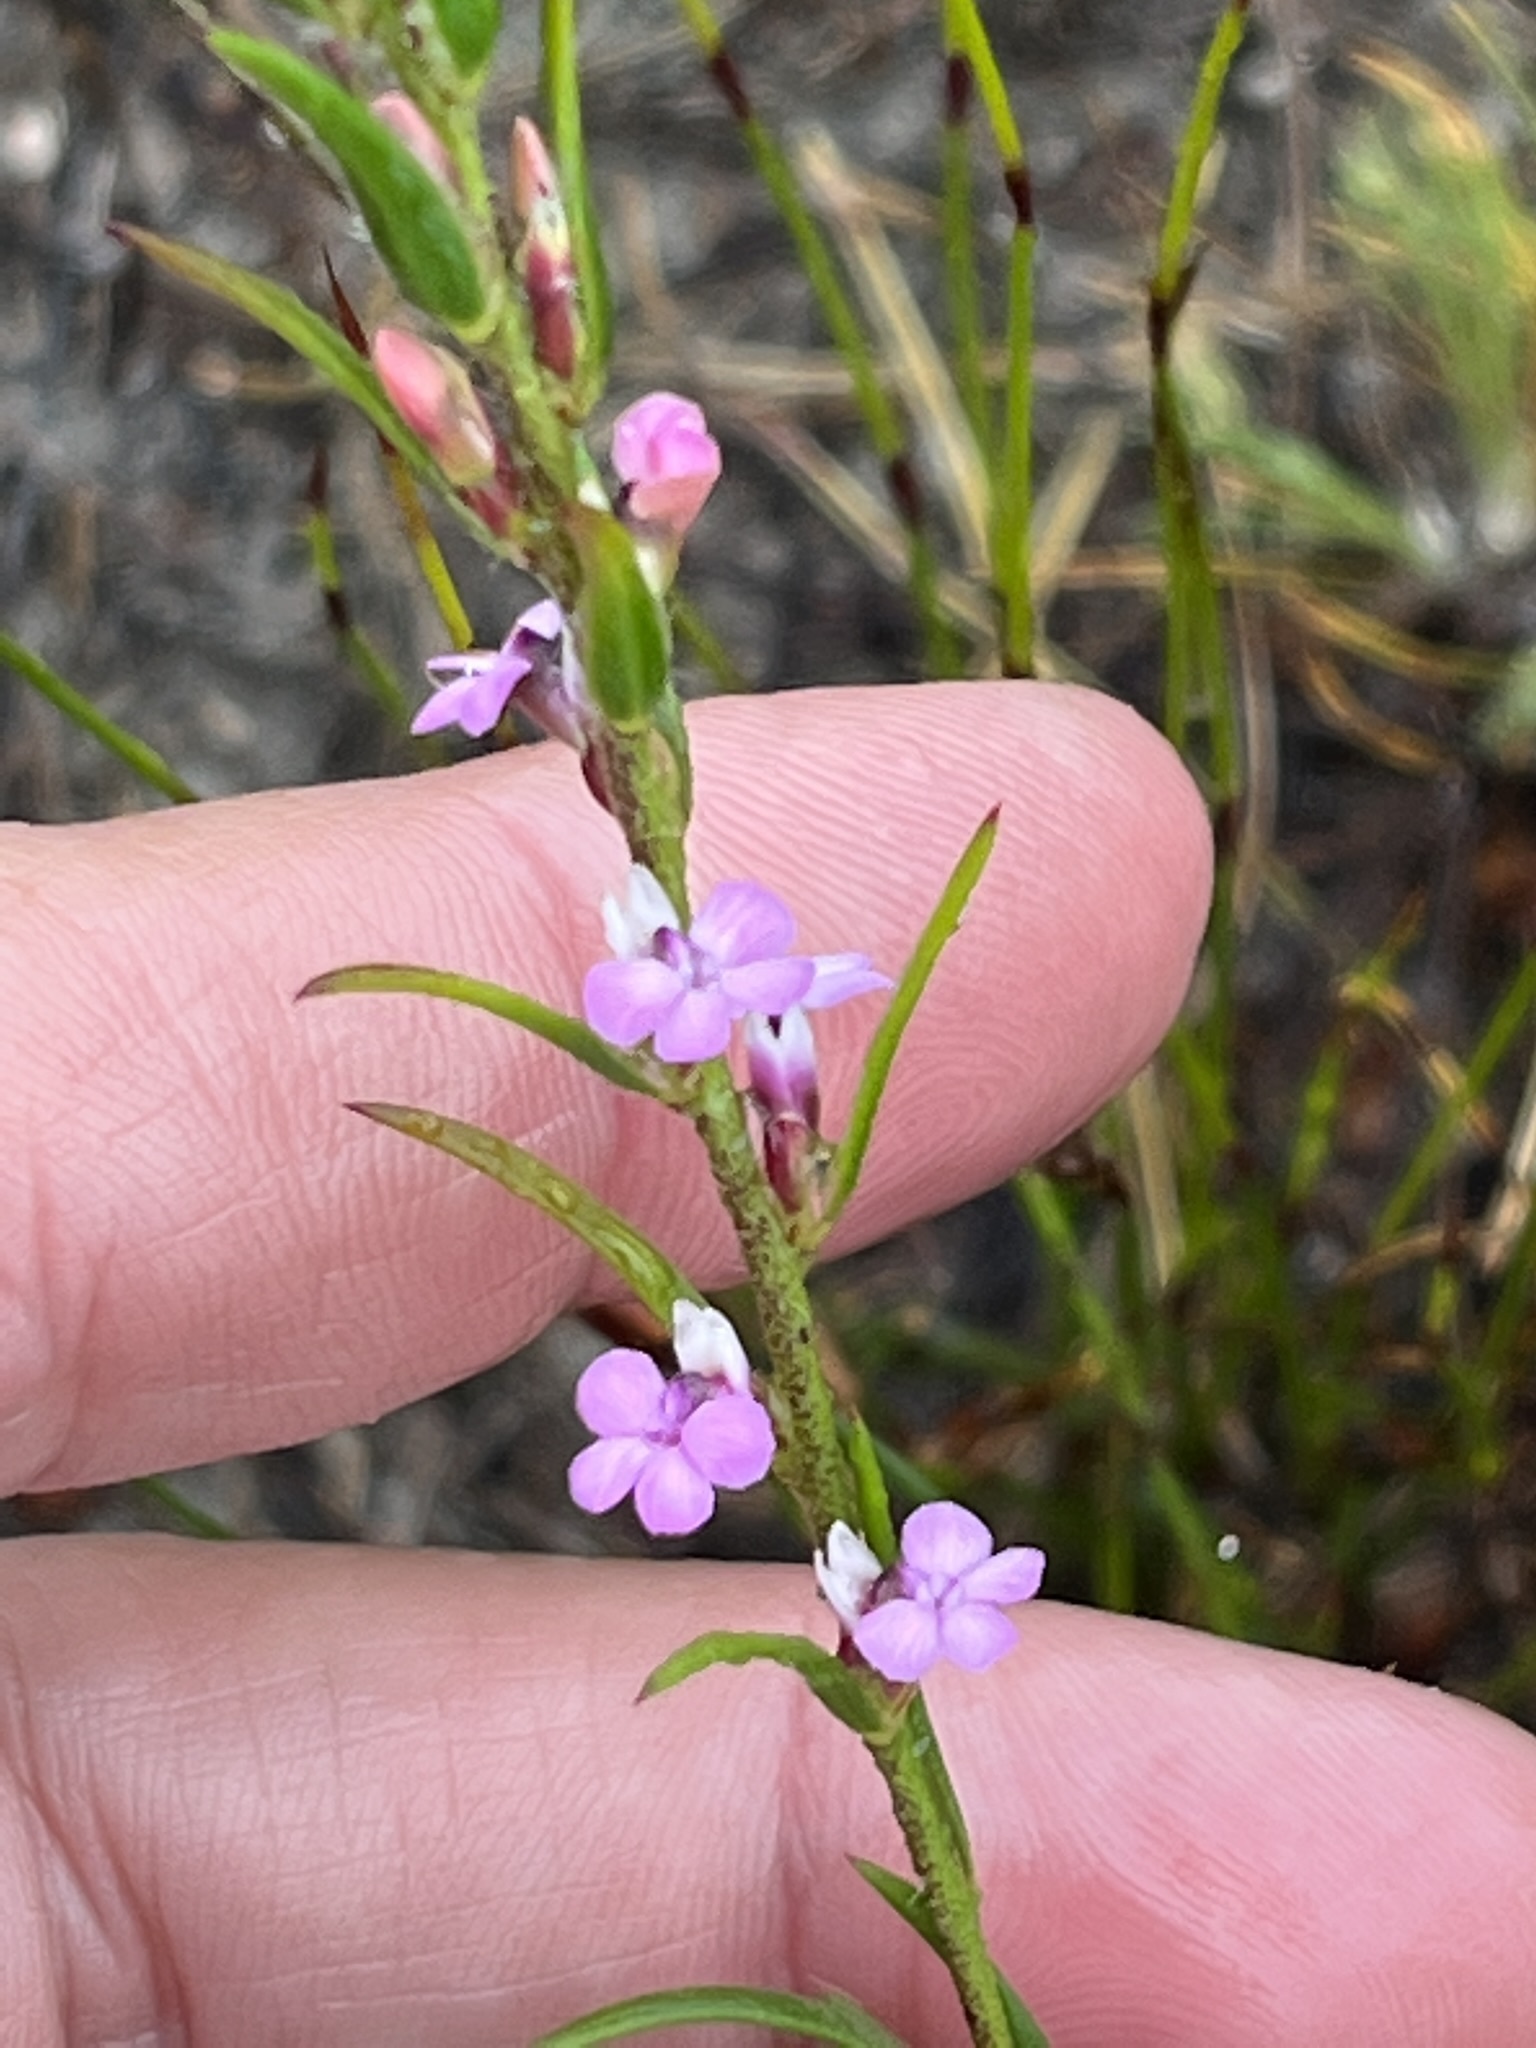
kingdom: Plantae
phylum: Tracheophyta
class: Magnoliopsida
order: Fabales
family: Polygalaceae
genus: Muraltia
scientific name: Muraltia empleuridioides
